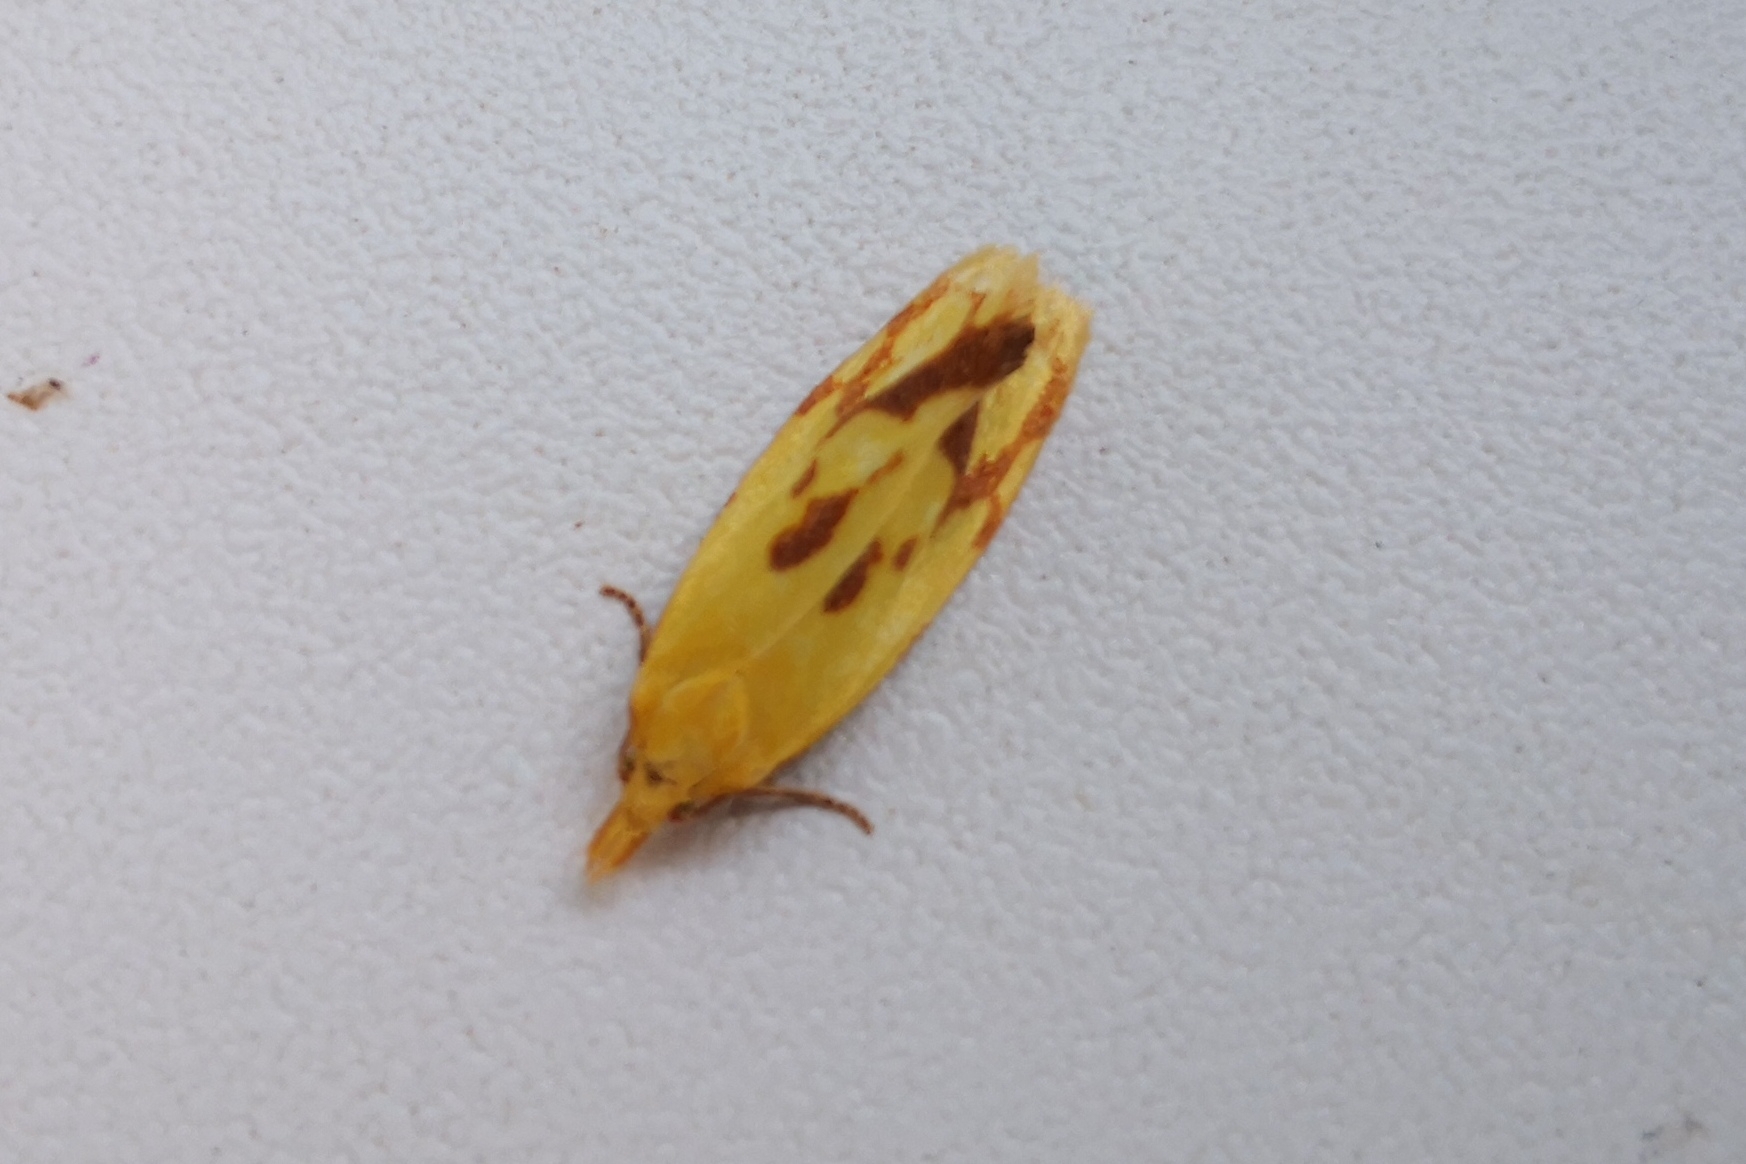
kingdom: Animalia
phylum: Arthropoda
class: Insecta
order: Lepidoptera
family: Tortricidae
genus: Agapeta
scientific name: Agapeta hamana
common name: Common yellow conch
